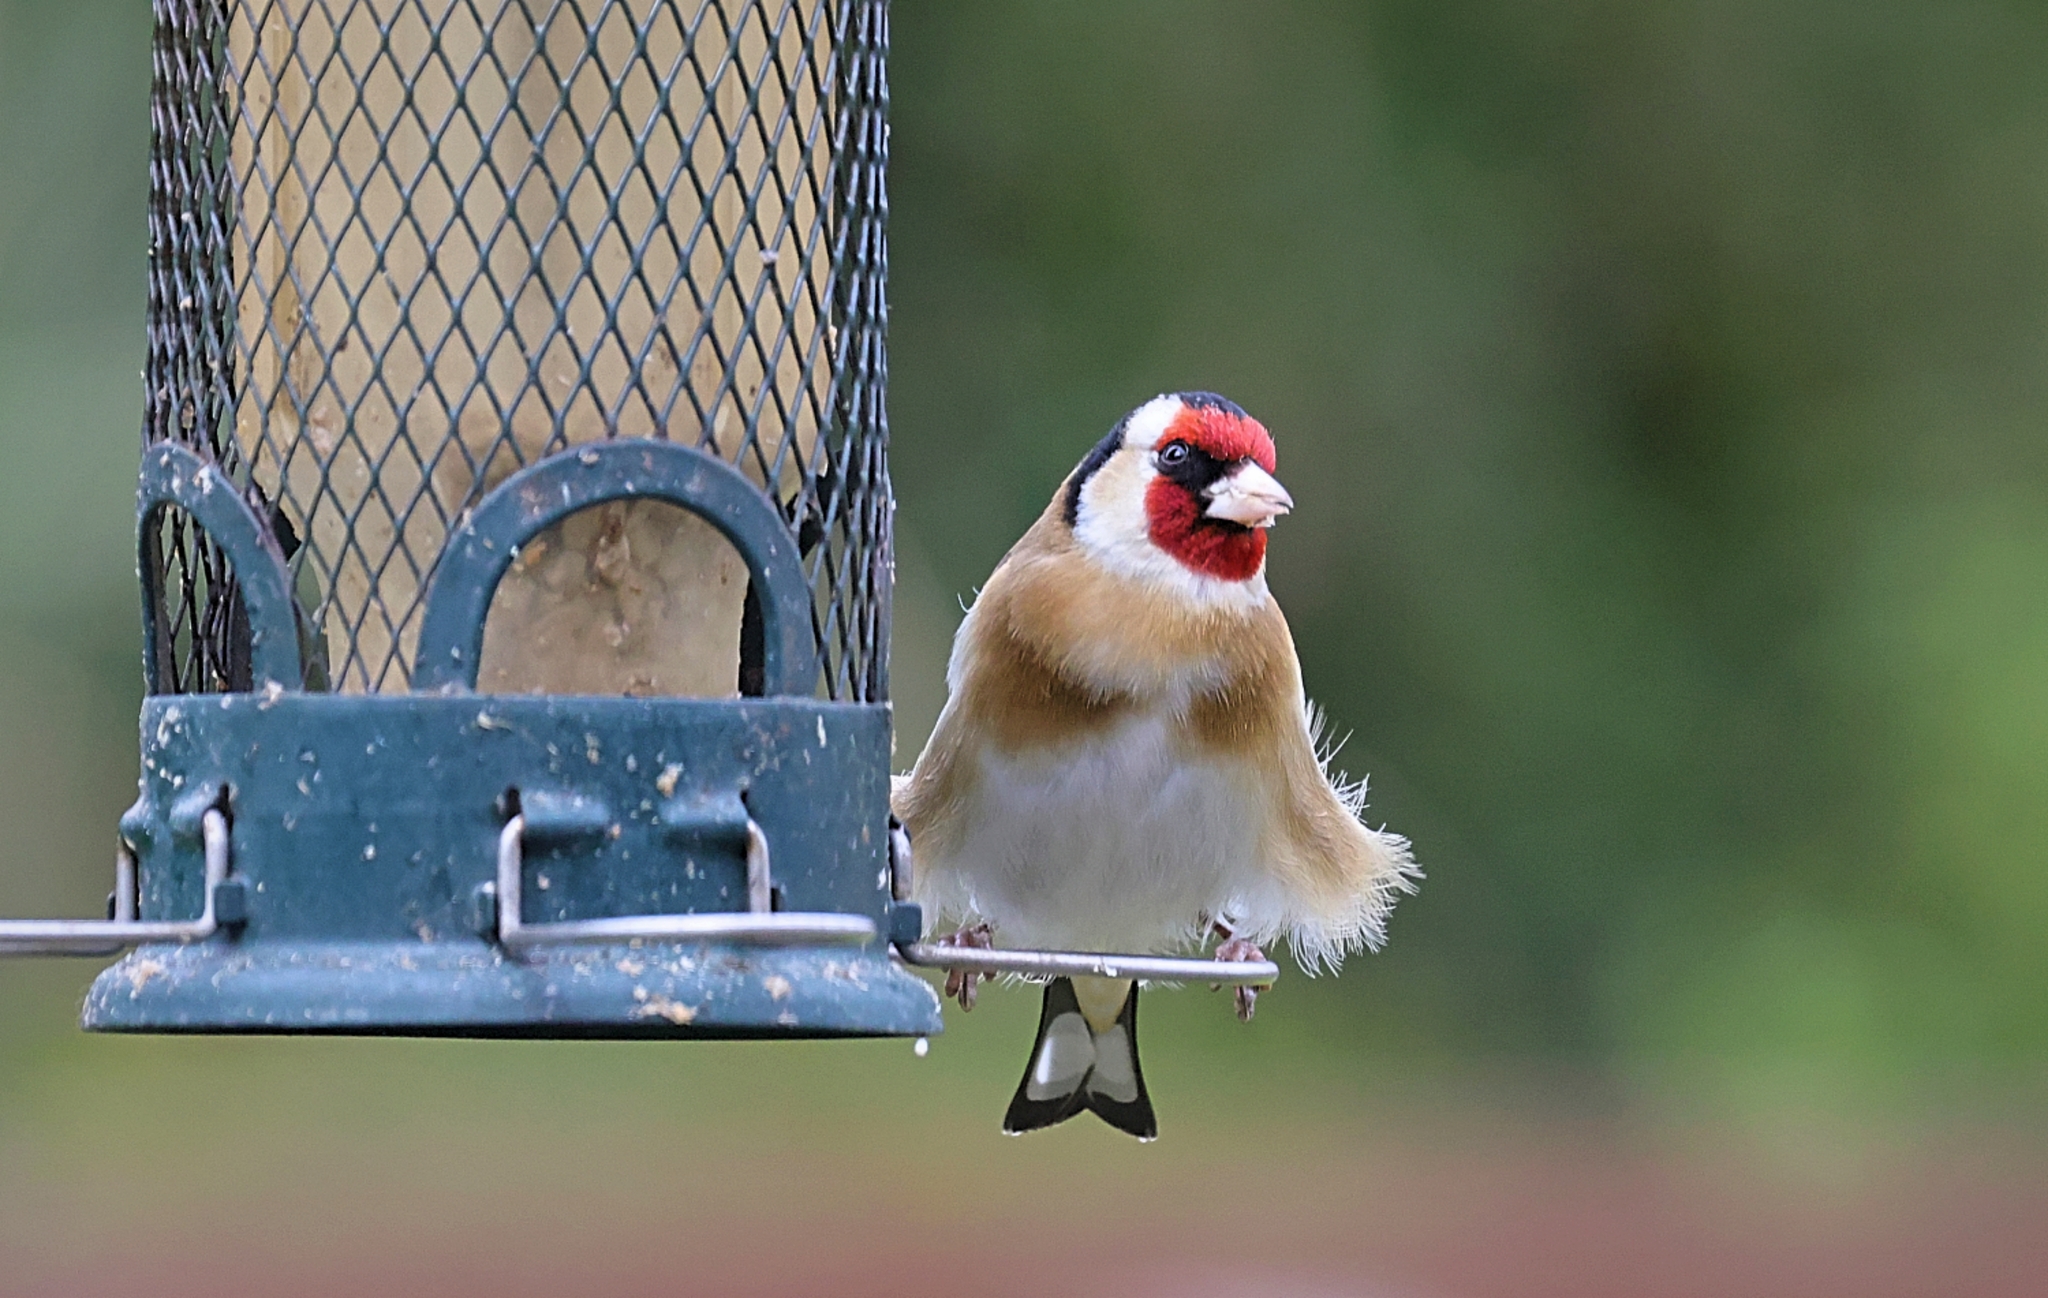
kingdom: Animalia
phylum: Chordata
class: Aves
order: Passeriformes
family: Fringillidae
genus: Carduelis
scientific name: Carduelis carduelis
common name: European goldfinch
